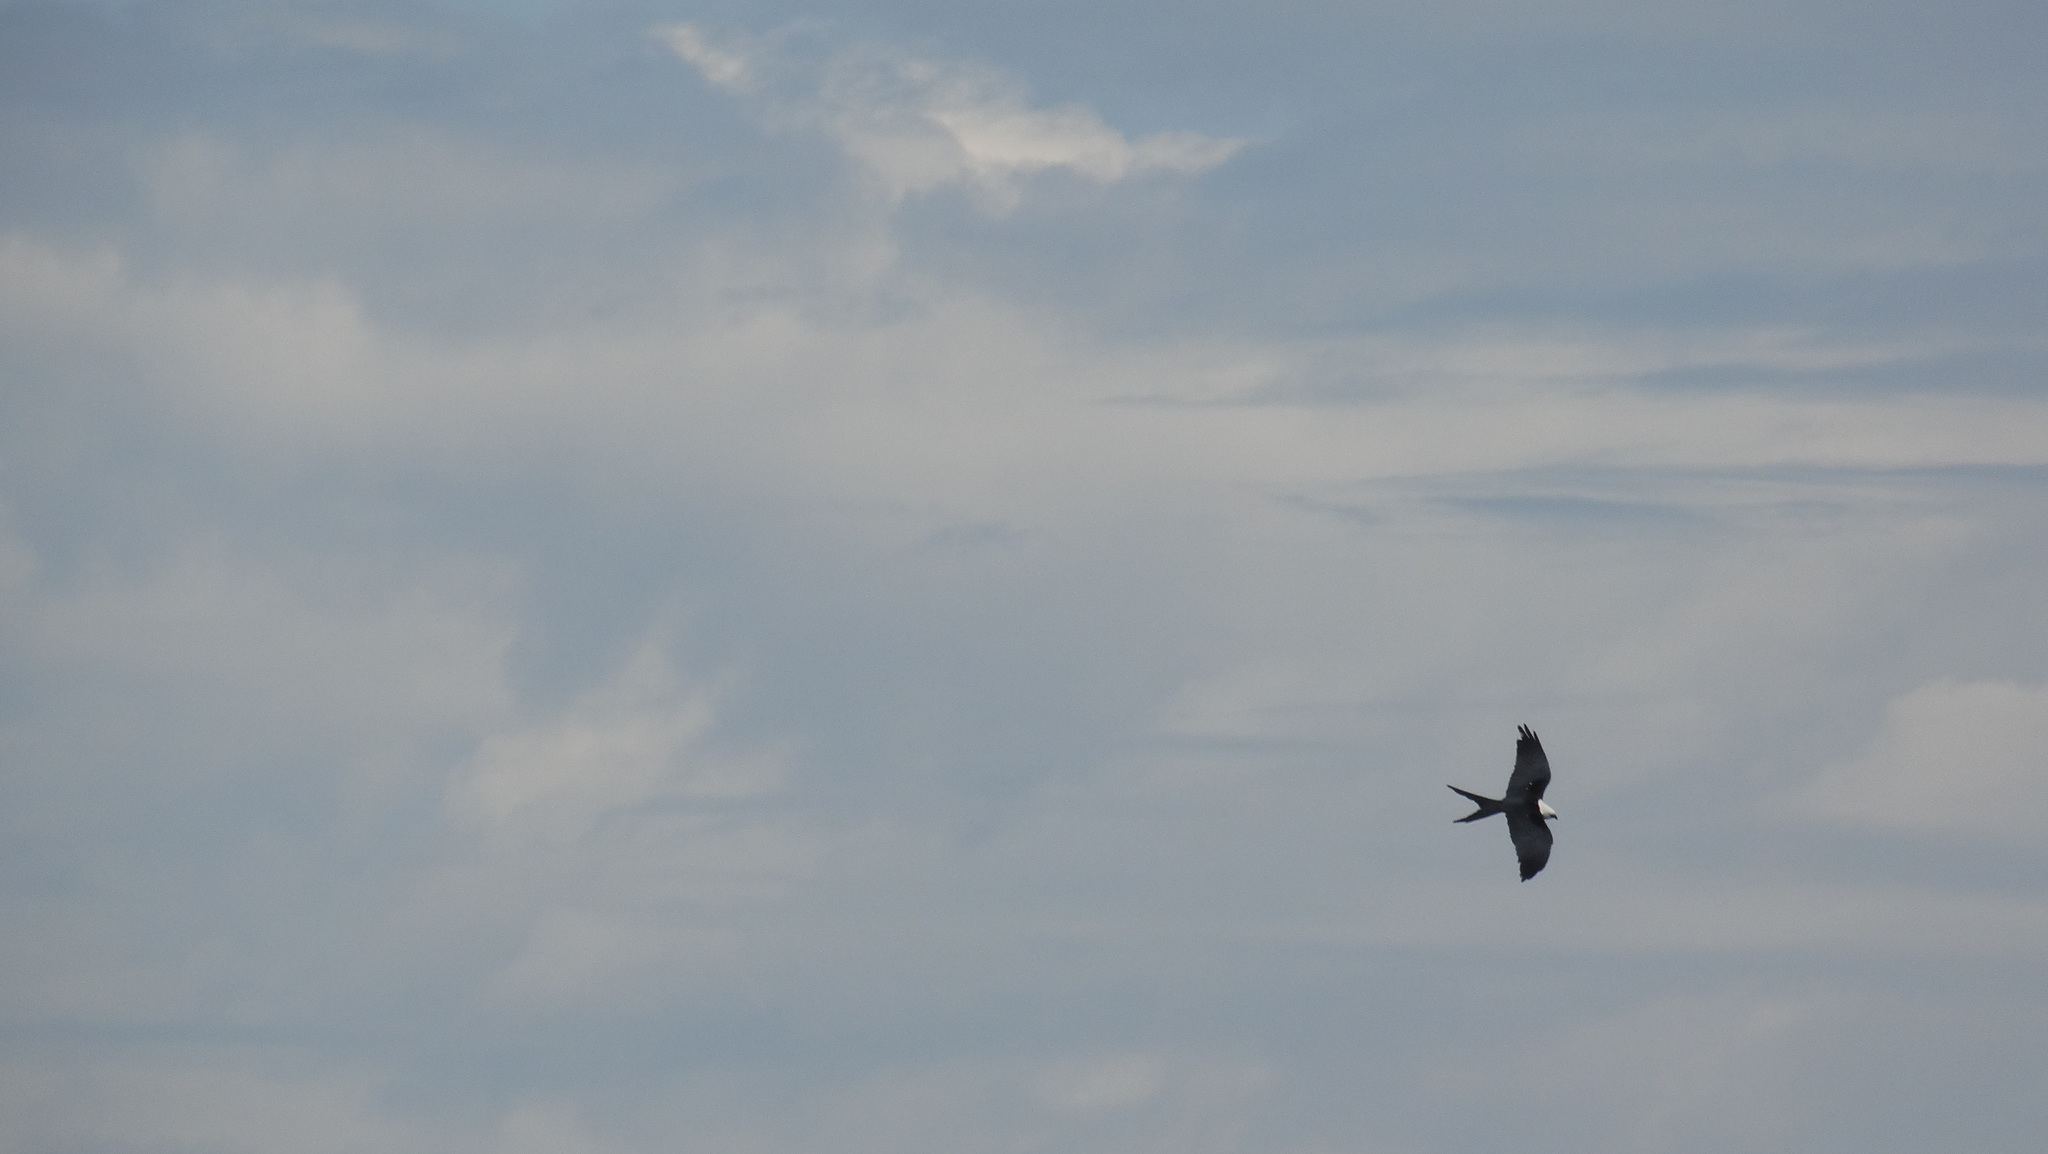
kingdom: Animalia
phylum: Chordata
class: Aves
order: Accipitriformes
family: Accipitridae
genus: Elanoides
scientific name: Elanoides forficatus
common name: Swallow-tailed kite
